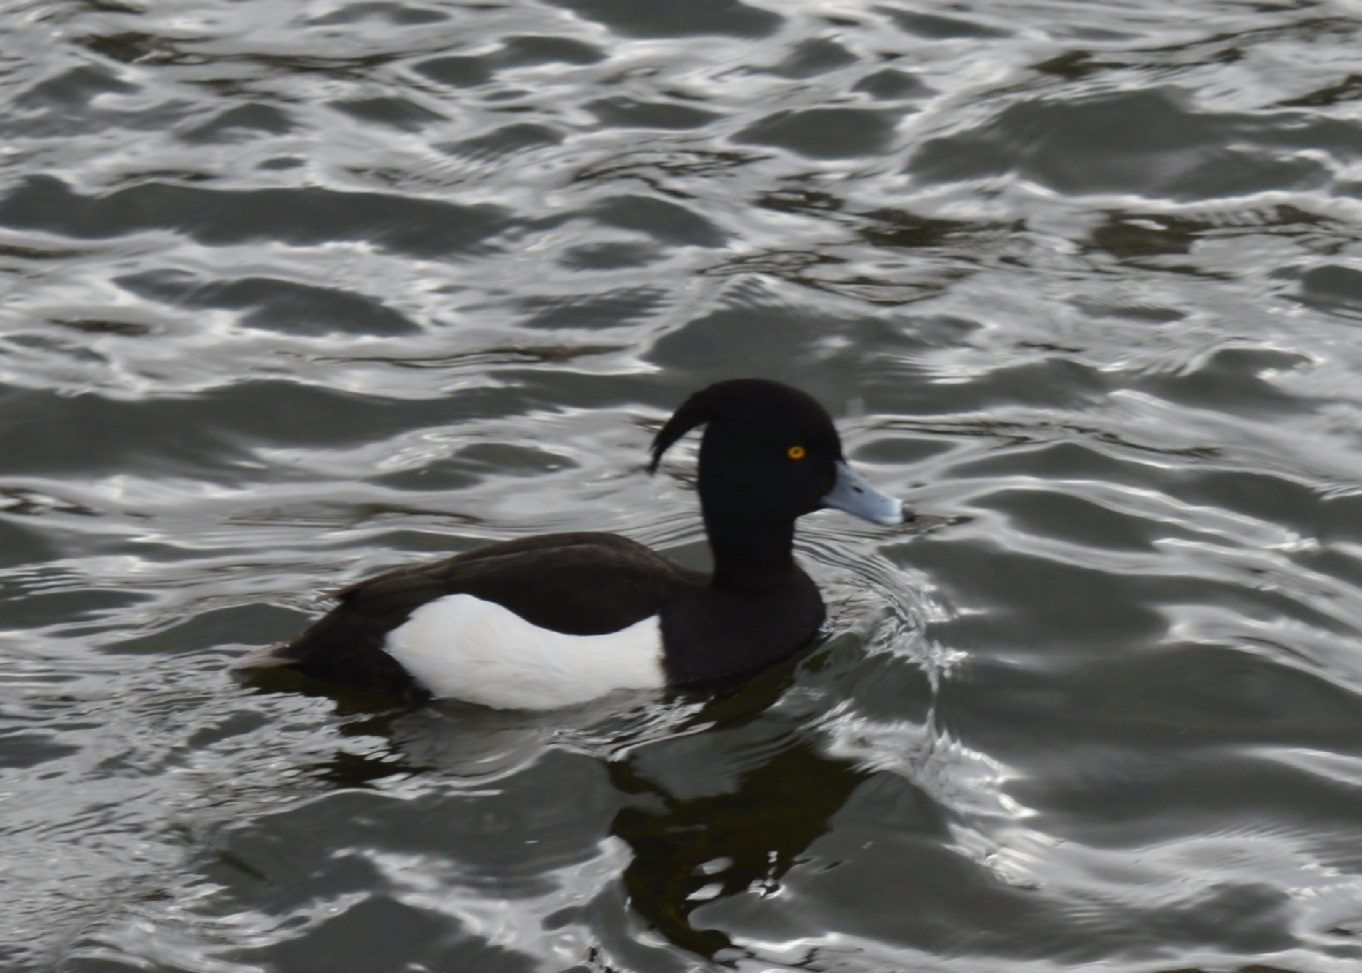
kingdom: Animalia
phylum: Chordata
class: Aves
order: Anseriformes
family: Anatidae
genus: Aythya
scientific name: Aythya fuligula
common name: Tufted duck
